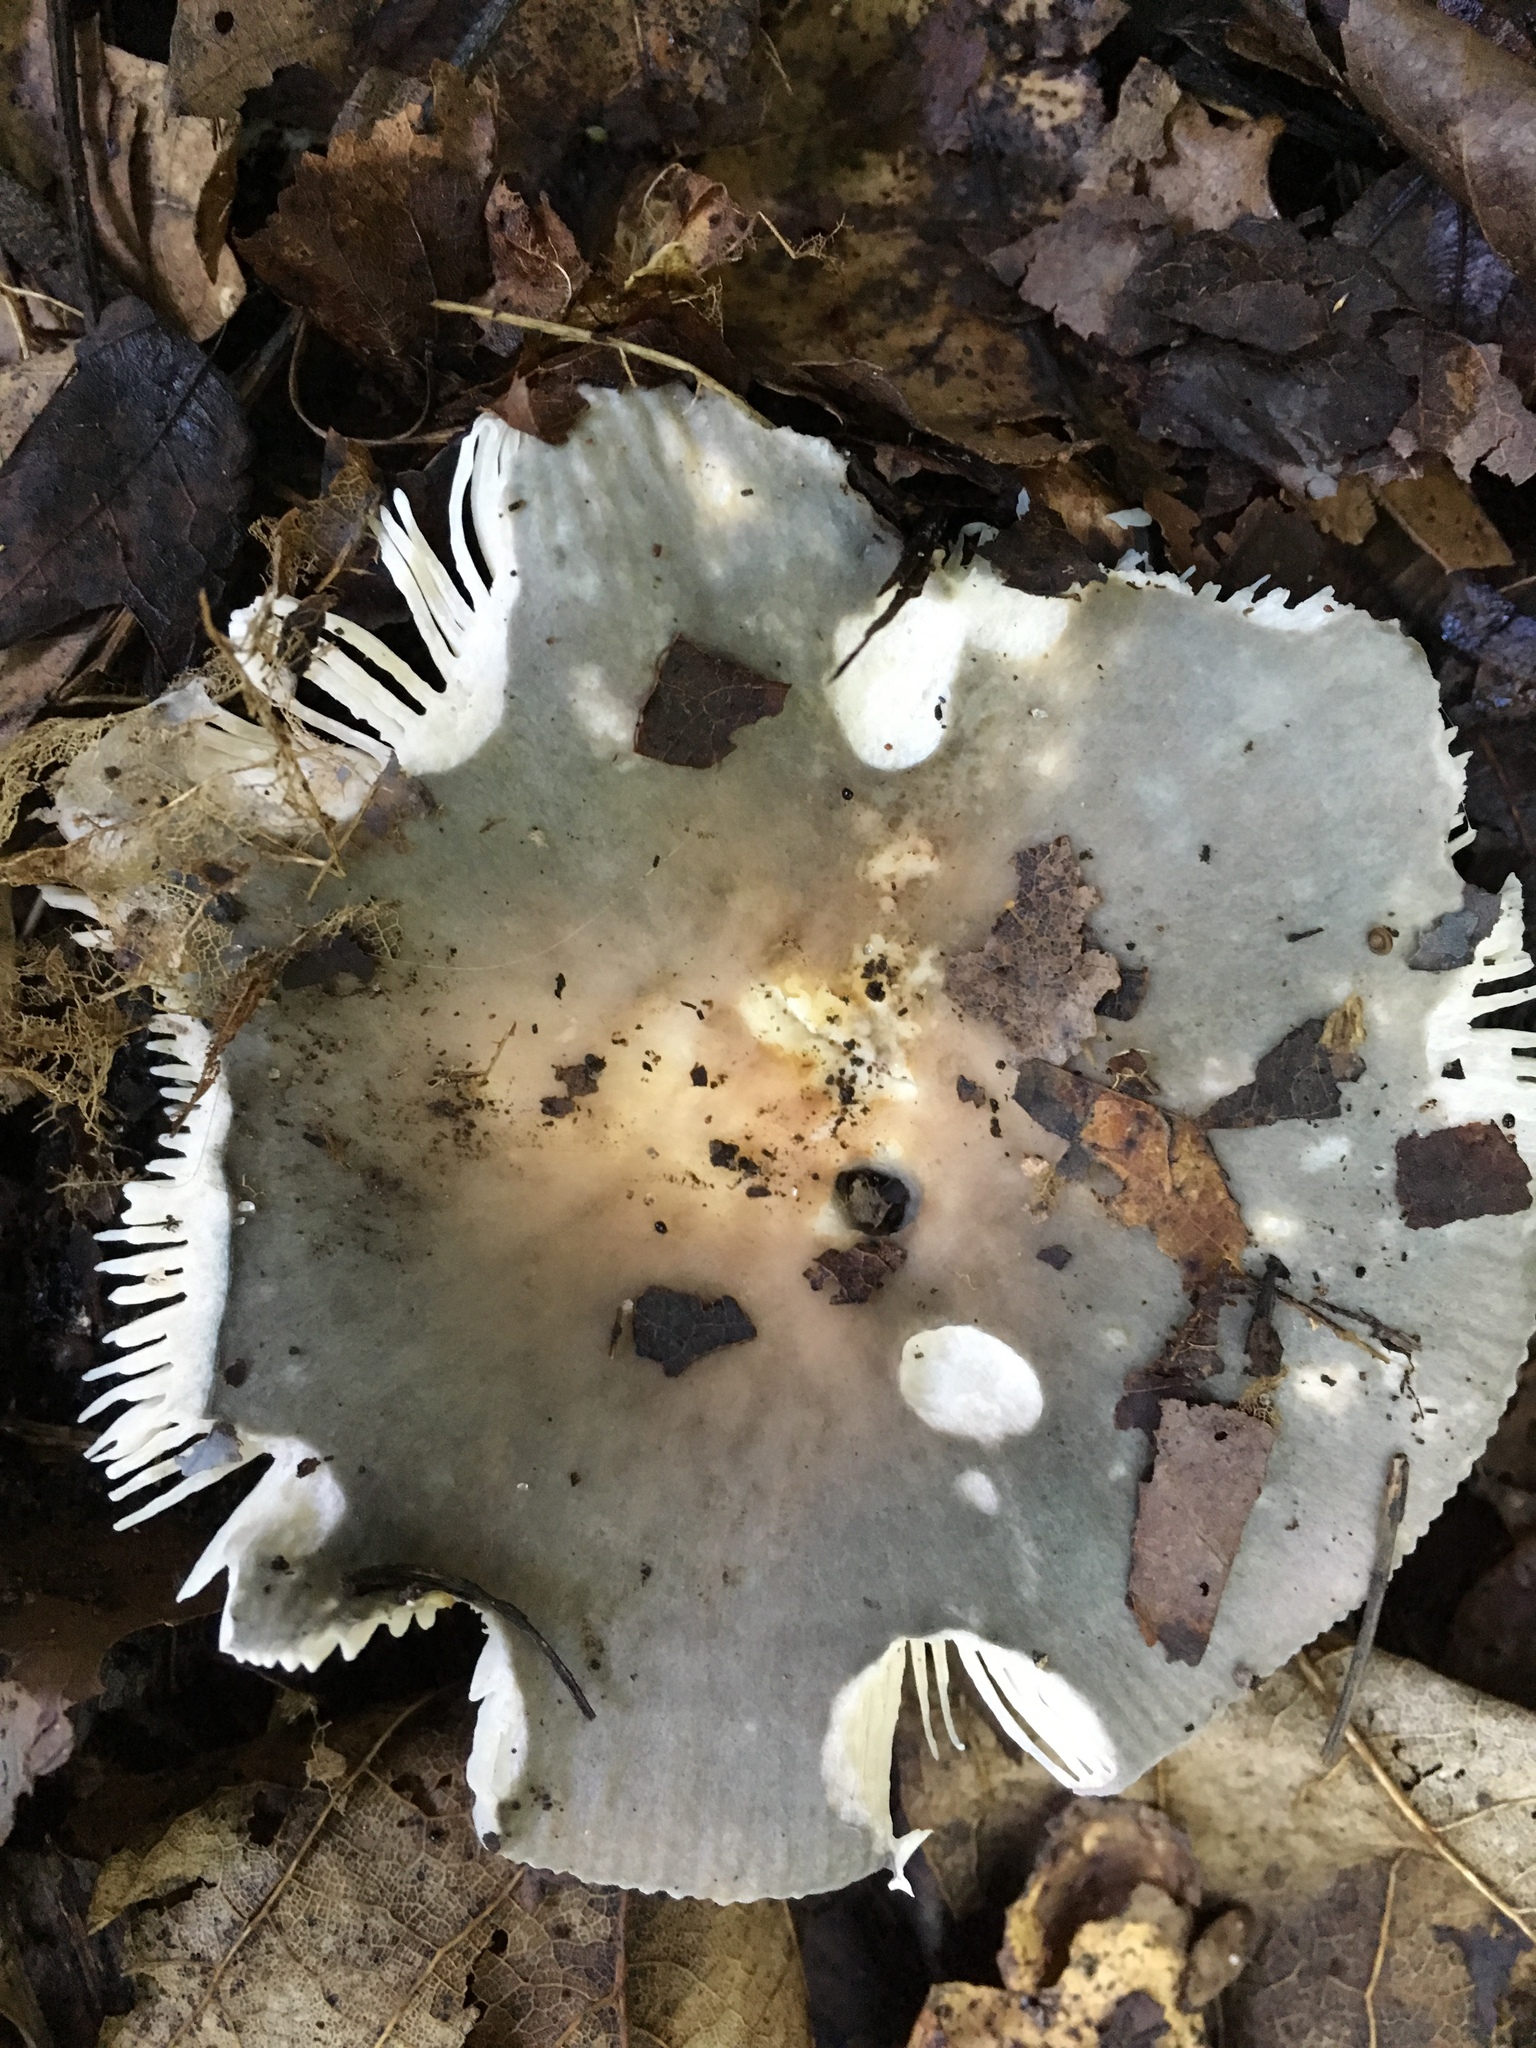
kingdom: Fungi
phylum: Basidiomycota
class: Agaricomycetes
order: Russulales
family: Russulaceae
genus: Russula
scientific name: Russula cyanoxantha
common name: Charcoal burner
